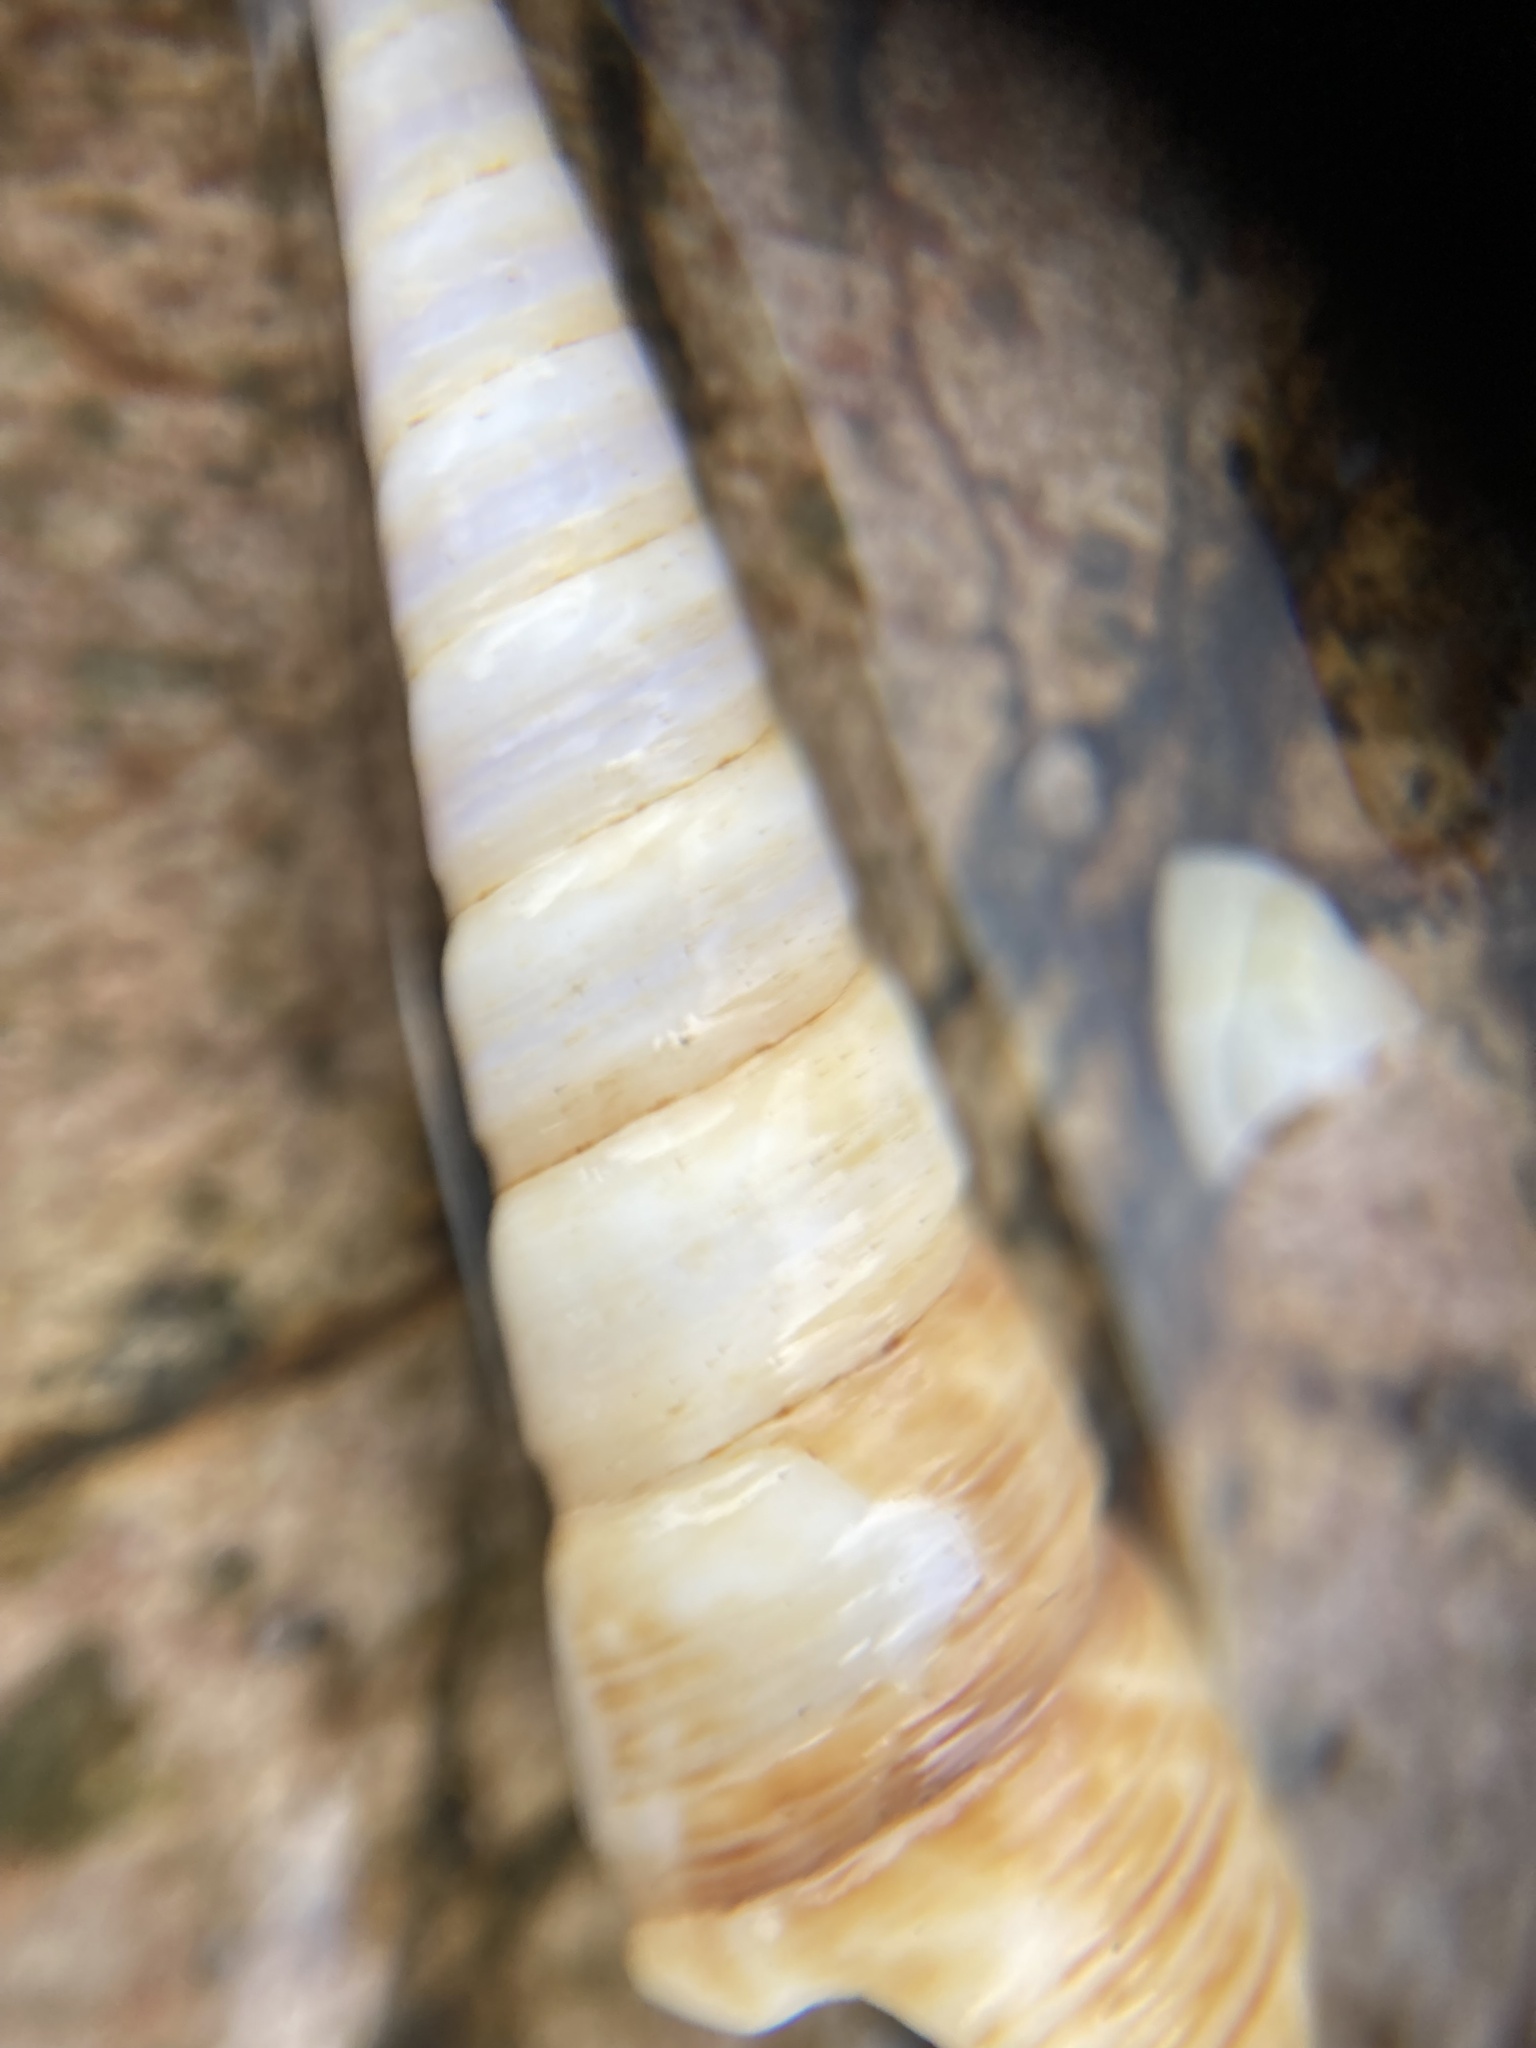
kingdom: Animalia
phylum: Mollusca
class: Gastropoda
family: Turritellidae
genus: Maoricolpus
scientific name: Maoricolpus roseus
